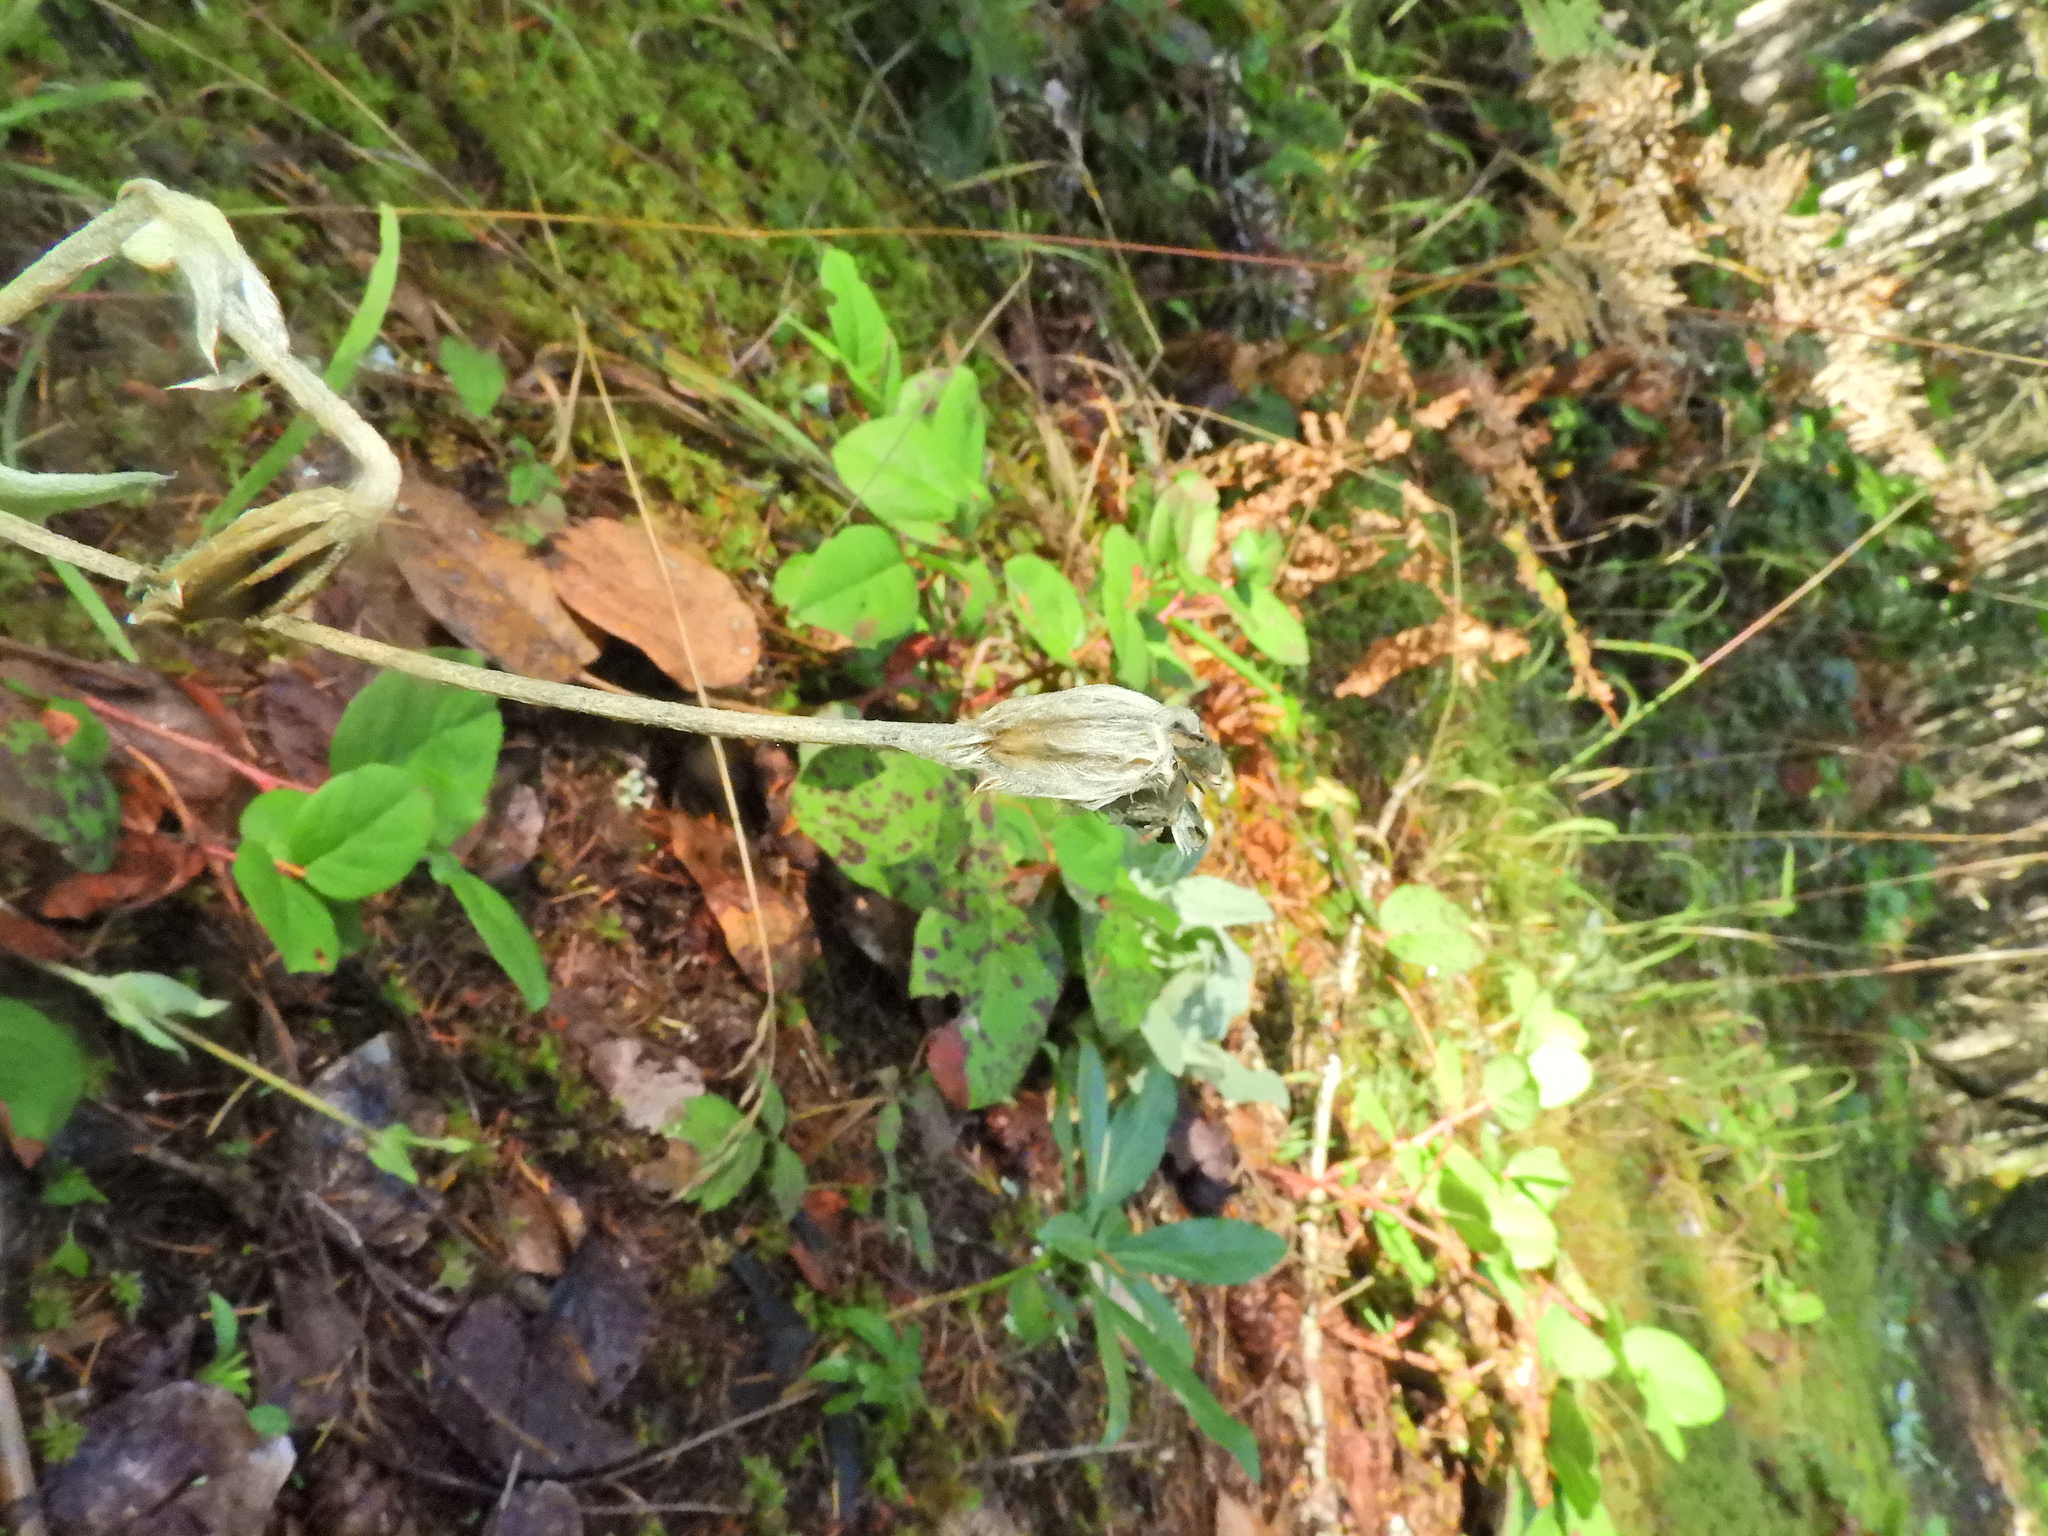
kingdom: Plantae
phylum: Tracheophyta
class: Magnoliopsida
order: Caryophyllales
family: Caryophyllaceae
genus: Silene
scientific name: Silene coronaria
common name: Rose campion
